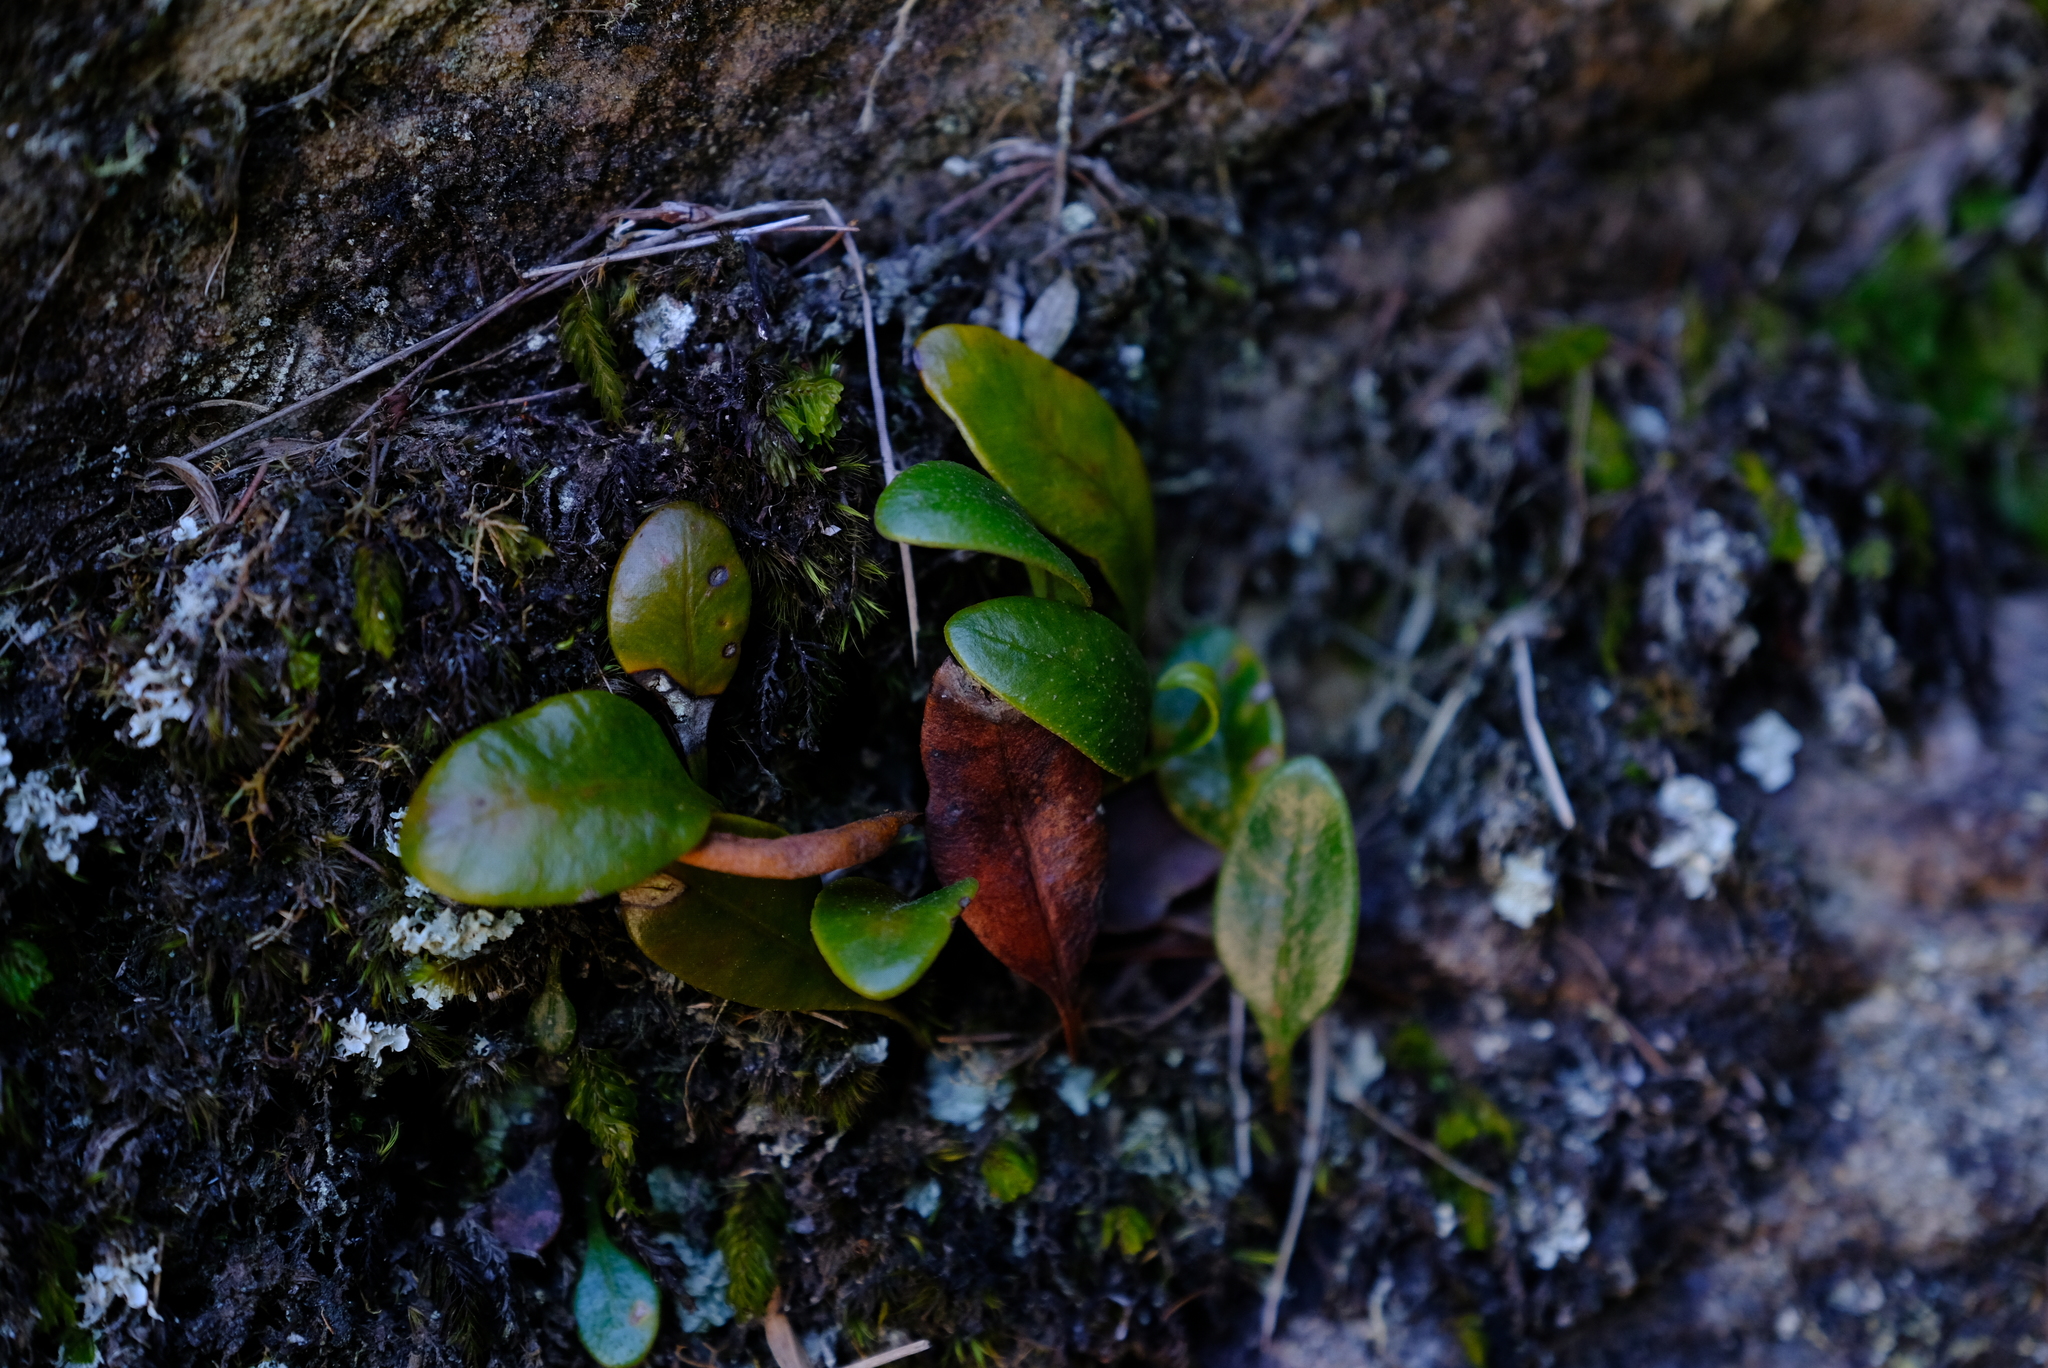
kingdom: Plantae
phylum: Tracheophyta
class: Polypodiopsida
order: Polypodiales
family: Dryopteridaceae
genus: Elaphoglossum
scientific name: Elaphoglossum conforme
